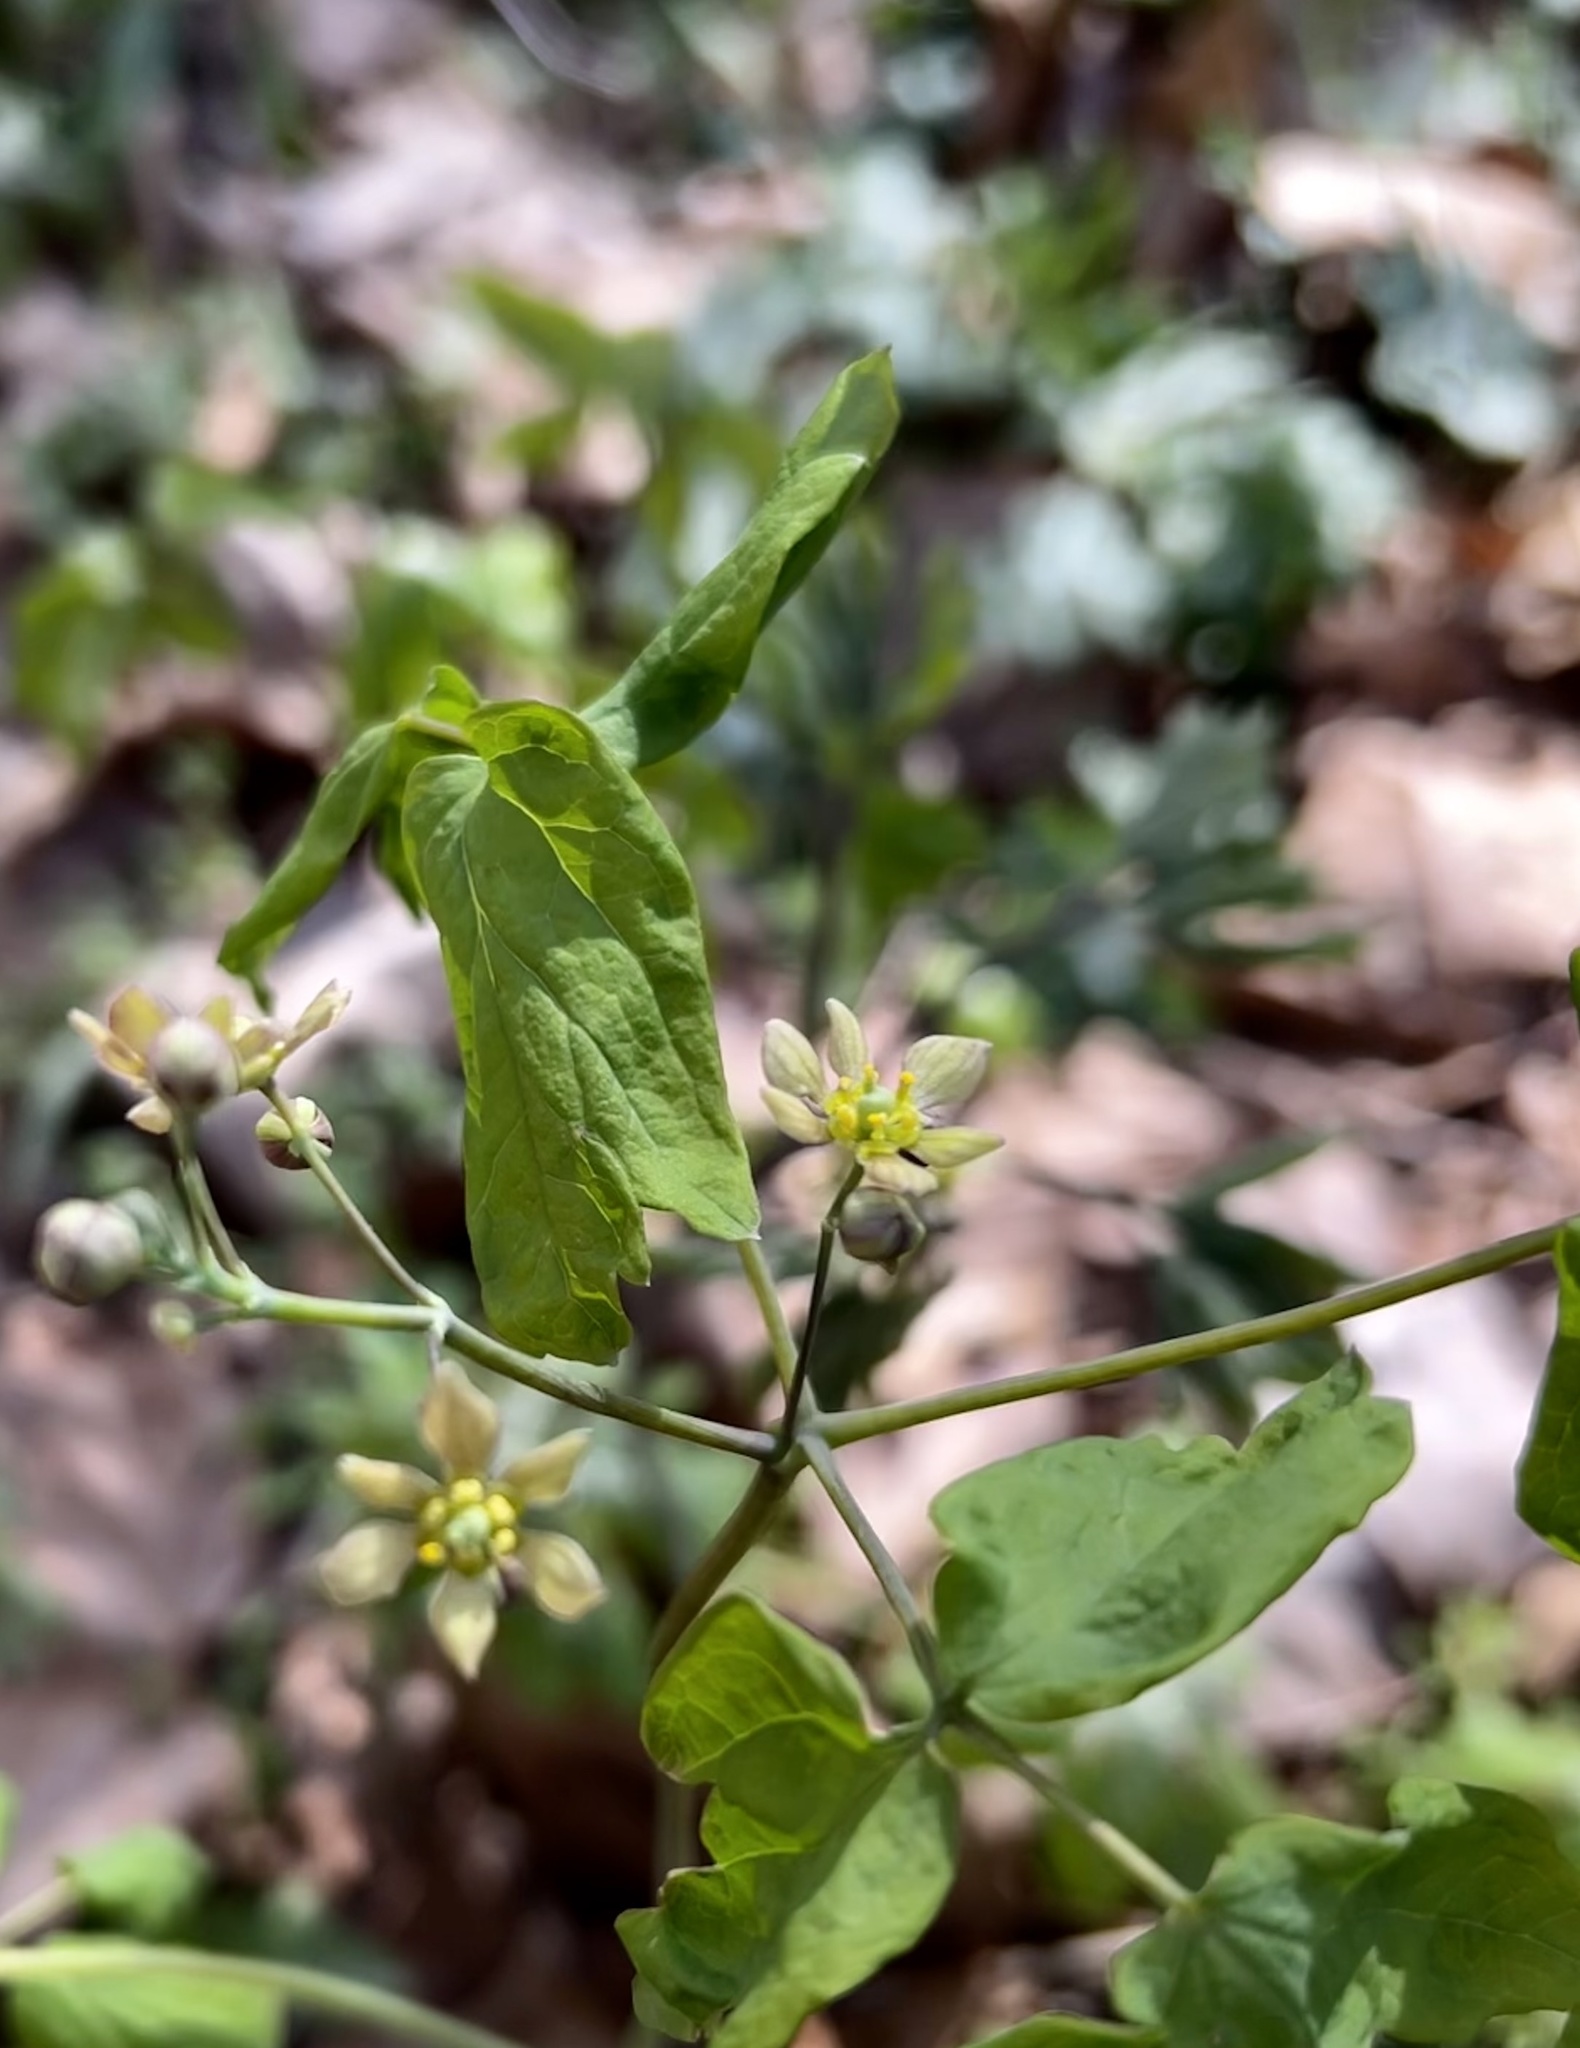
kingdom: Plantae
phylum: Tracheophyta
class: Magnoliopsida
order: Ranunculales
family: Berberidaceae
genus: Caulophyllum
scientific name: Caulophyllum thalictroides
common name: Blue cohosh
